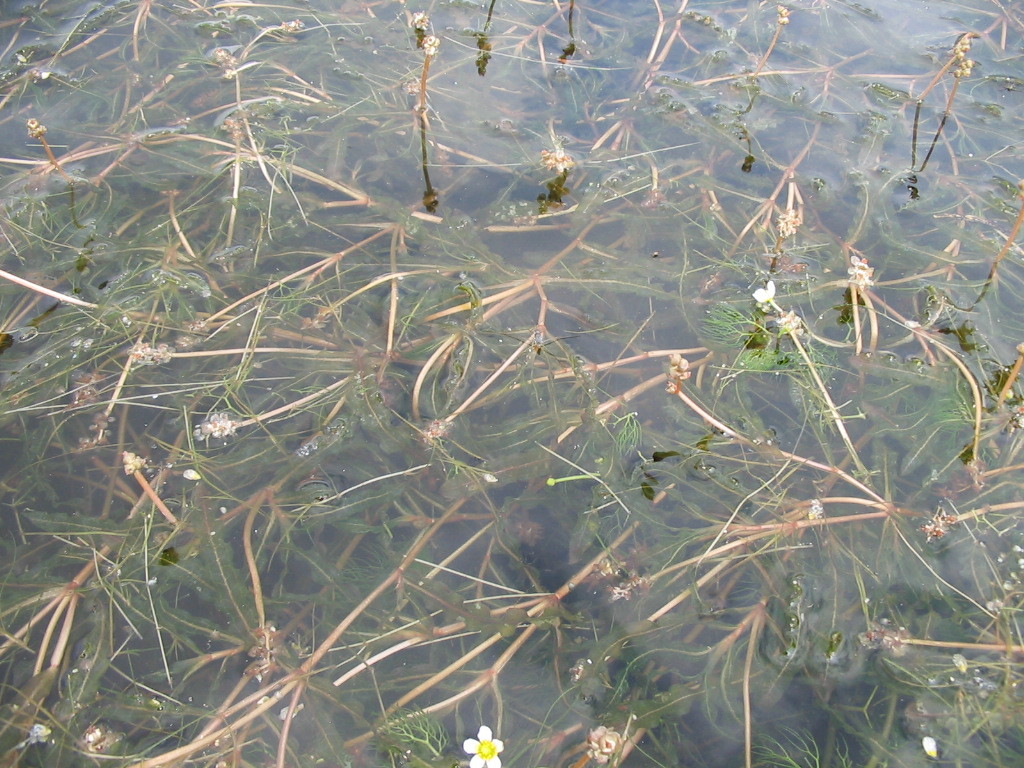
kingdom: Plantae
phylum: Tracheophyta
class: Liliopsida
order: Alismatales
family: Potamogetonaceae
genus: Potamogeton
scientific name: Potamogeton crispus
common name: Curled pondweed
